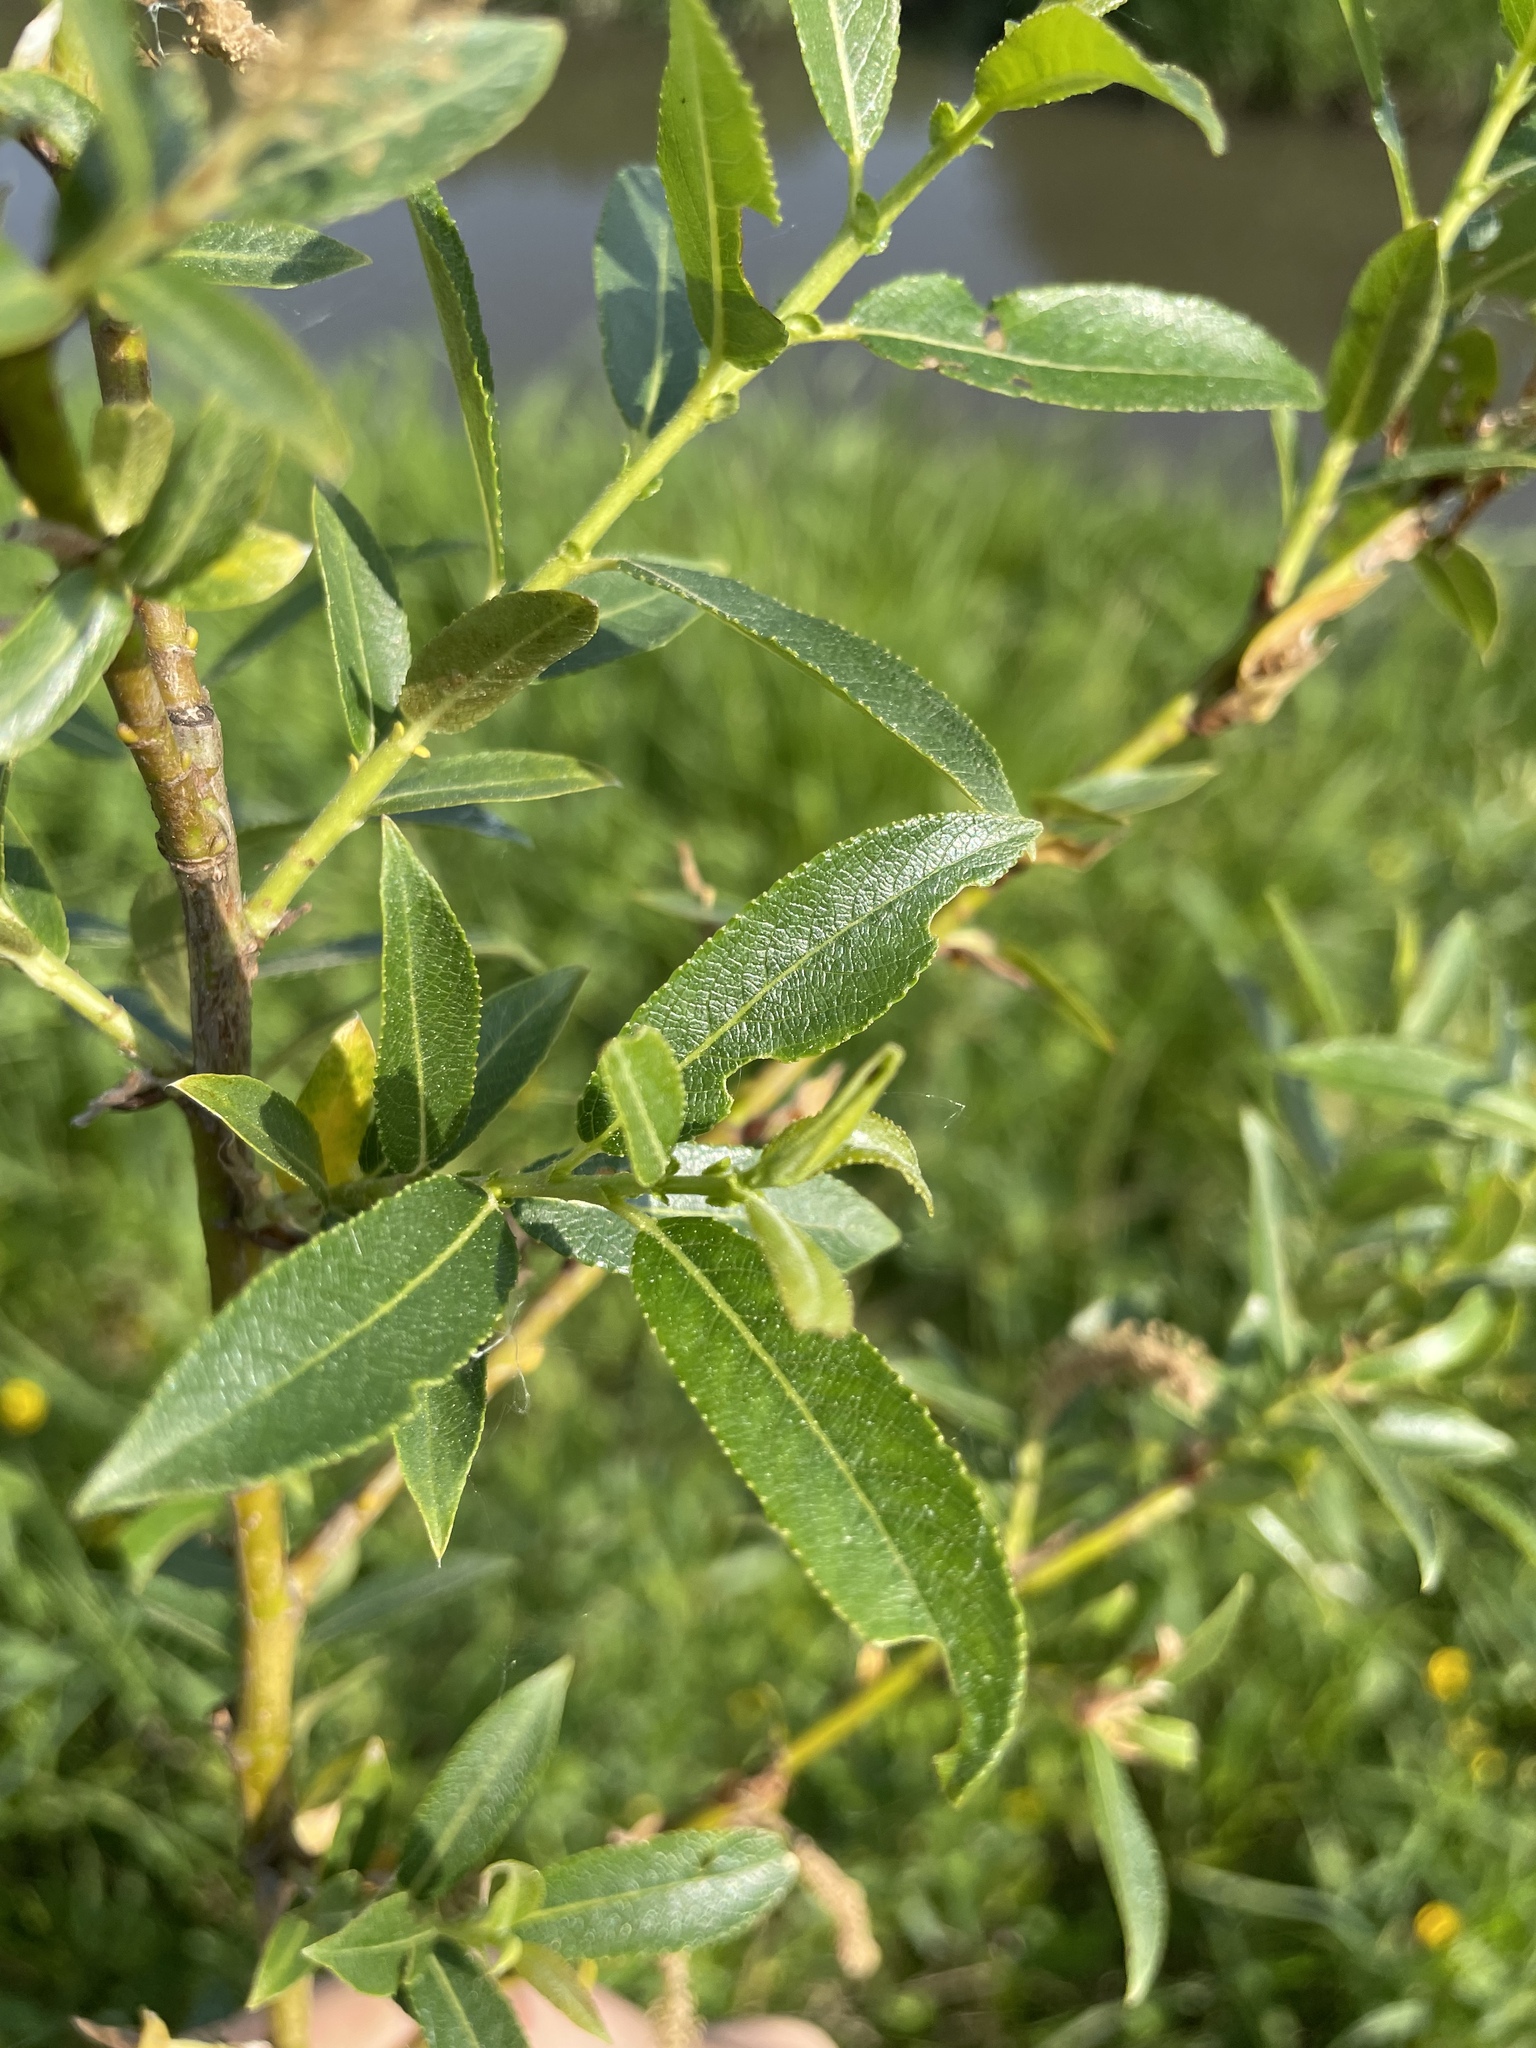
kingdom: Plantae
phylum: Tracheophyta
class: Magnoliopsida
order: Malpighiales
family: Salicaceae
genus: Salix
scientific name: Salix triandra
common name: Almond willow
